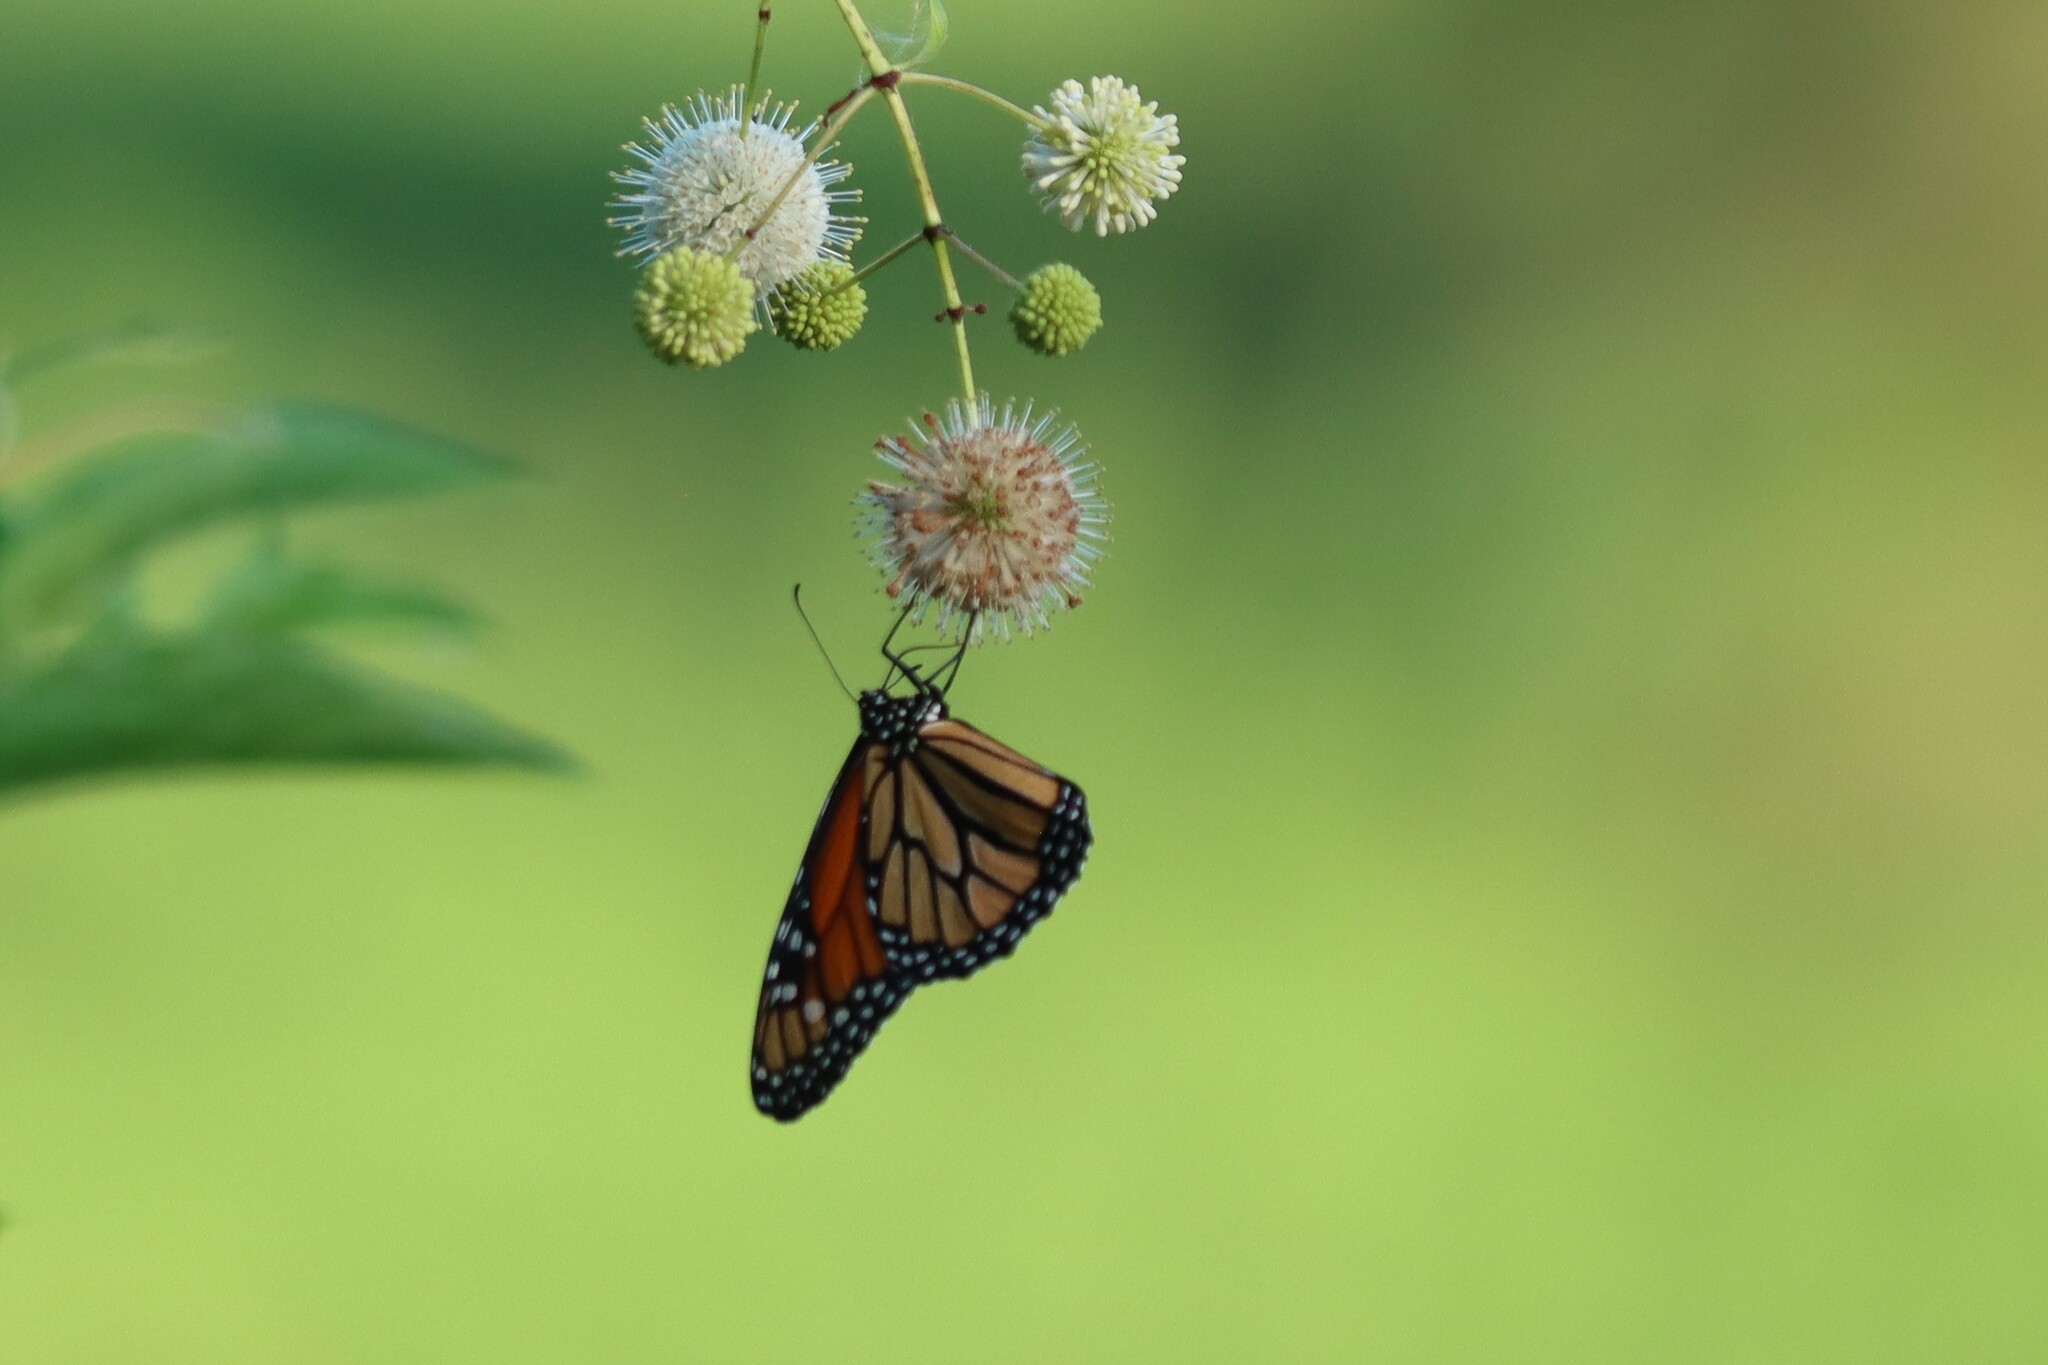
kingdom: Animalia
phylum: Arthropoda
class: Insecta
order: Lepidoptera
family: Nymphalidae
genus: Danaus
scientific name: Danaus plexippus
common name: Monarch
